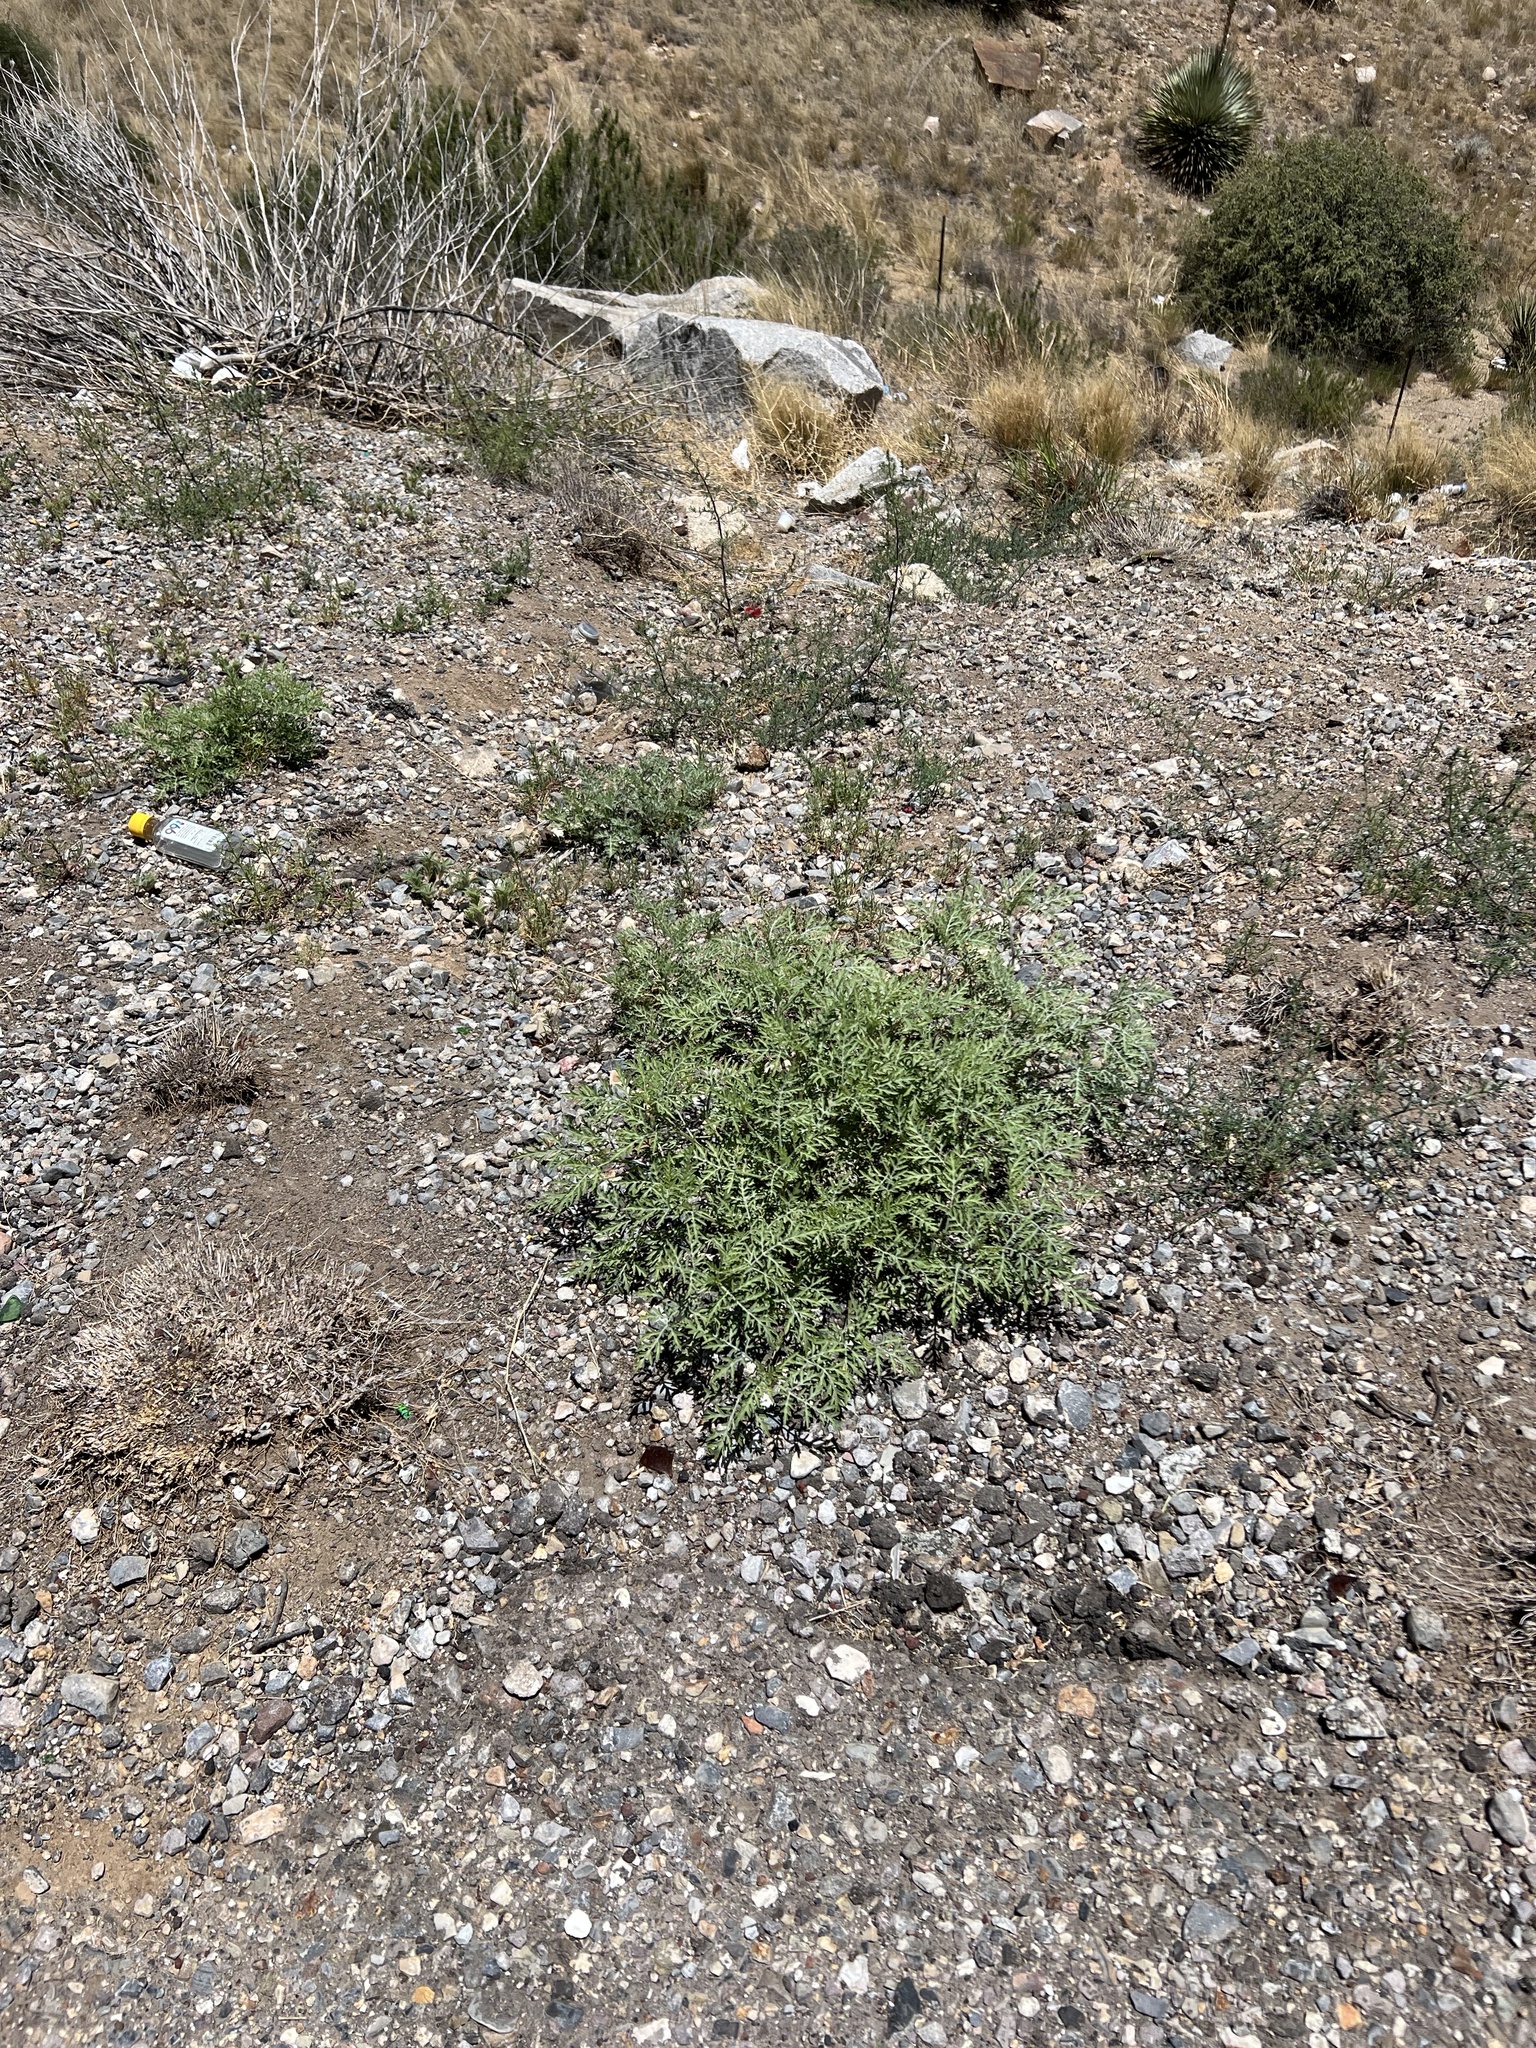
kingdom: Plantae
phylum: Tracheophyta
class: Magnoliopsida
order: Asterales
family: Asteraceae
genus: Ambrosia
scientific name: Ambrosia confertiflora
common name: Bur ragweed
